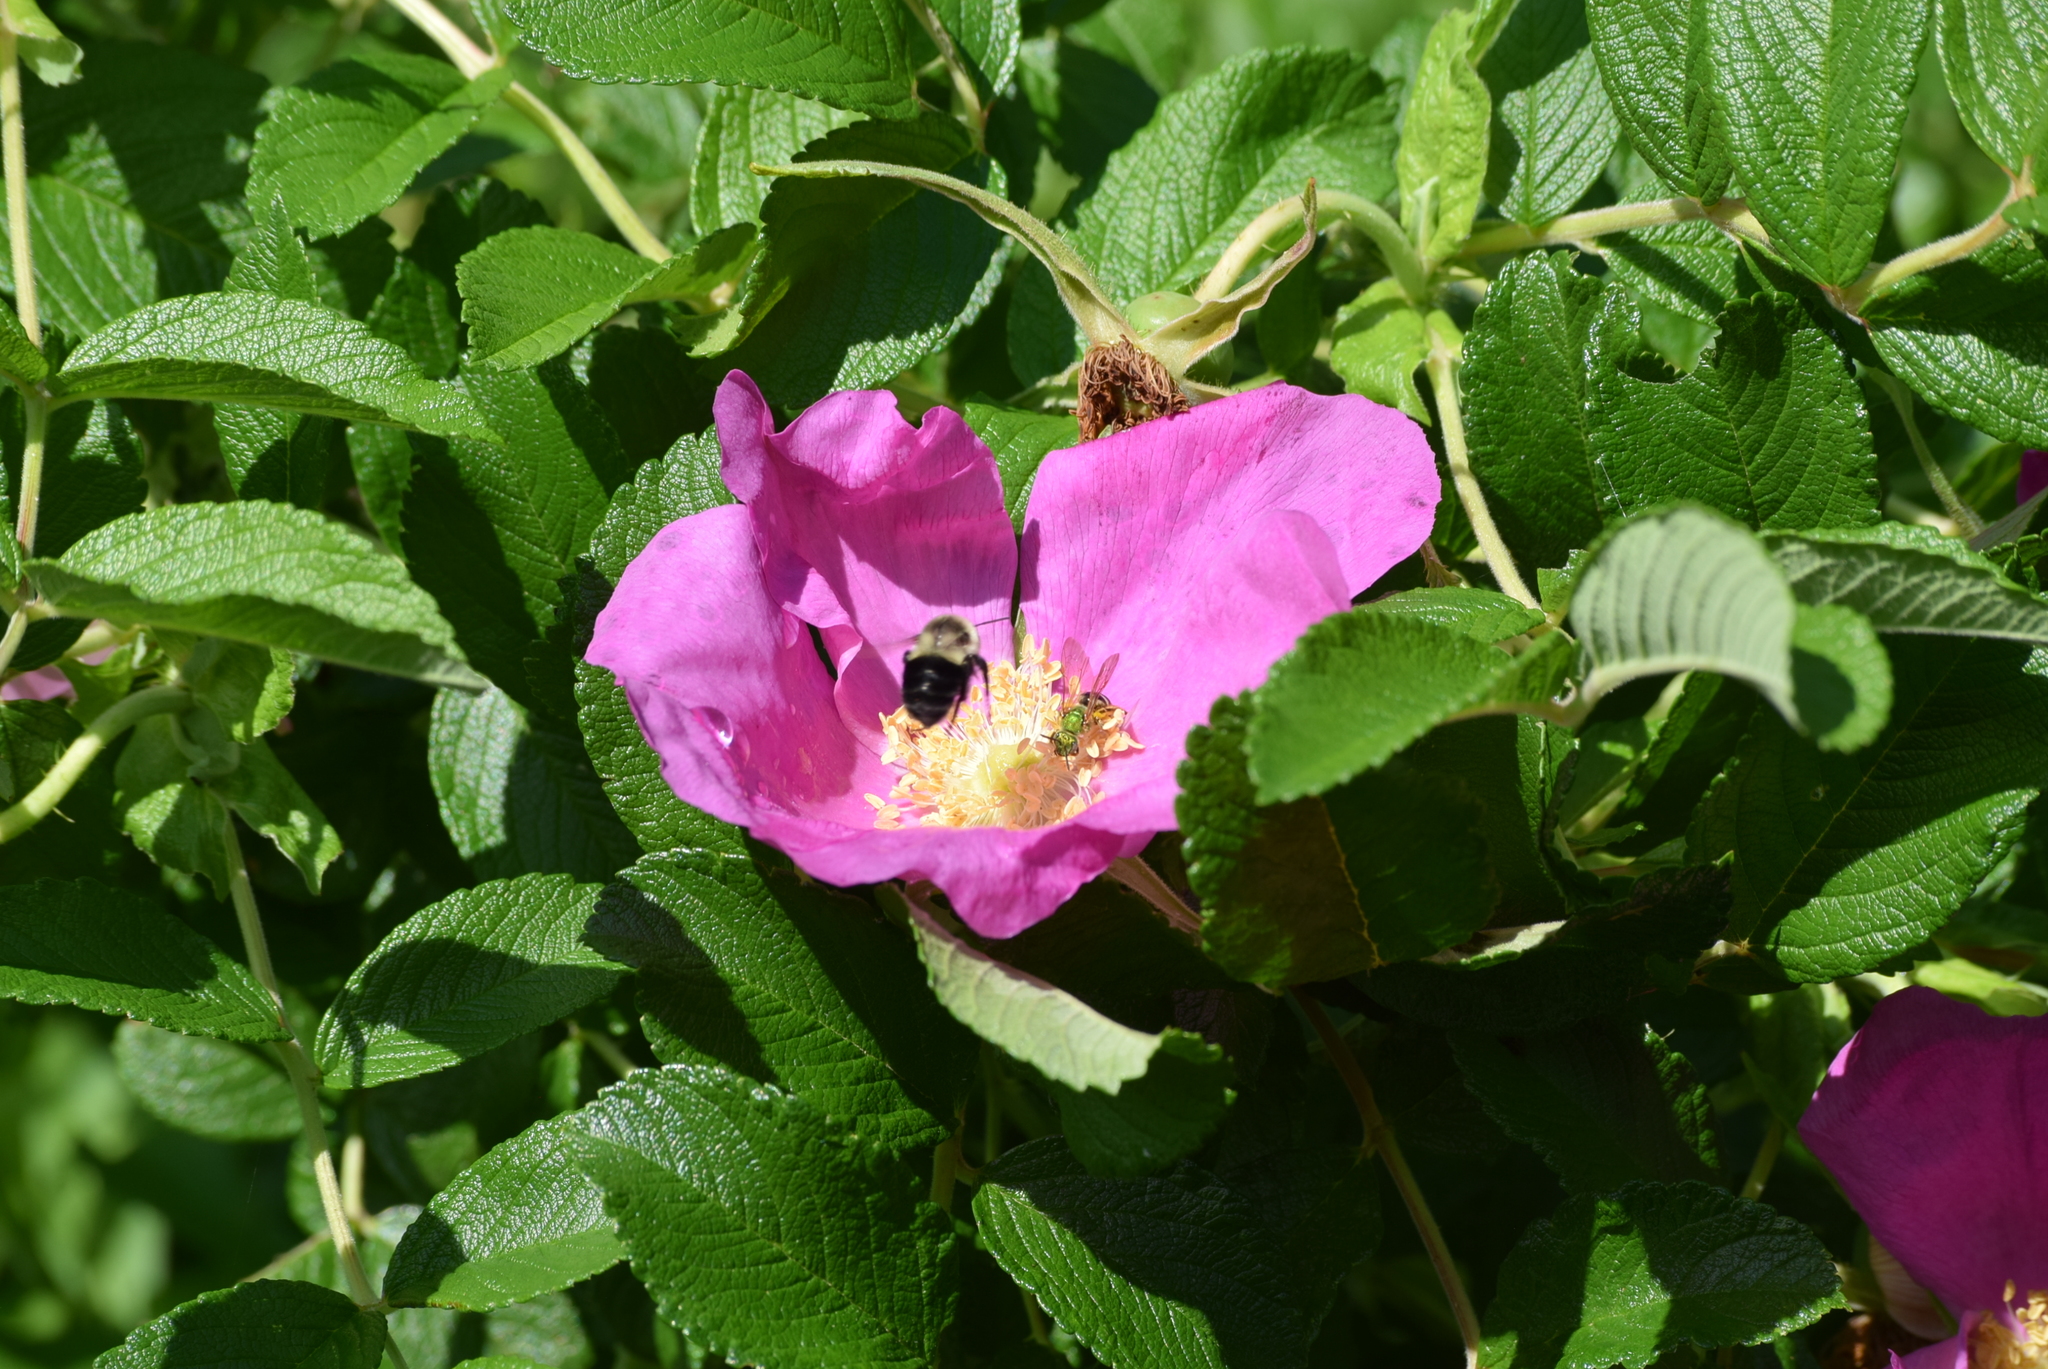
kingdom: Animalia
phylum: Arthropoda
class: Insecta
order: Hymenoptera
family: Apidae
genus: Bombus
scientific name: Bombus impatiens
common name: Common eastern bumble bee
